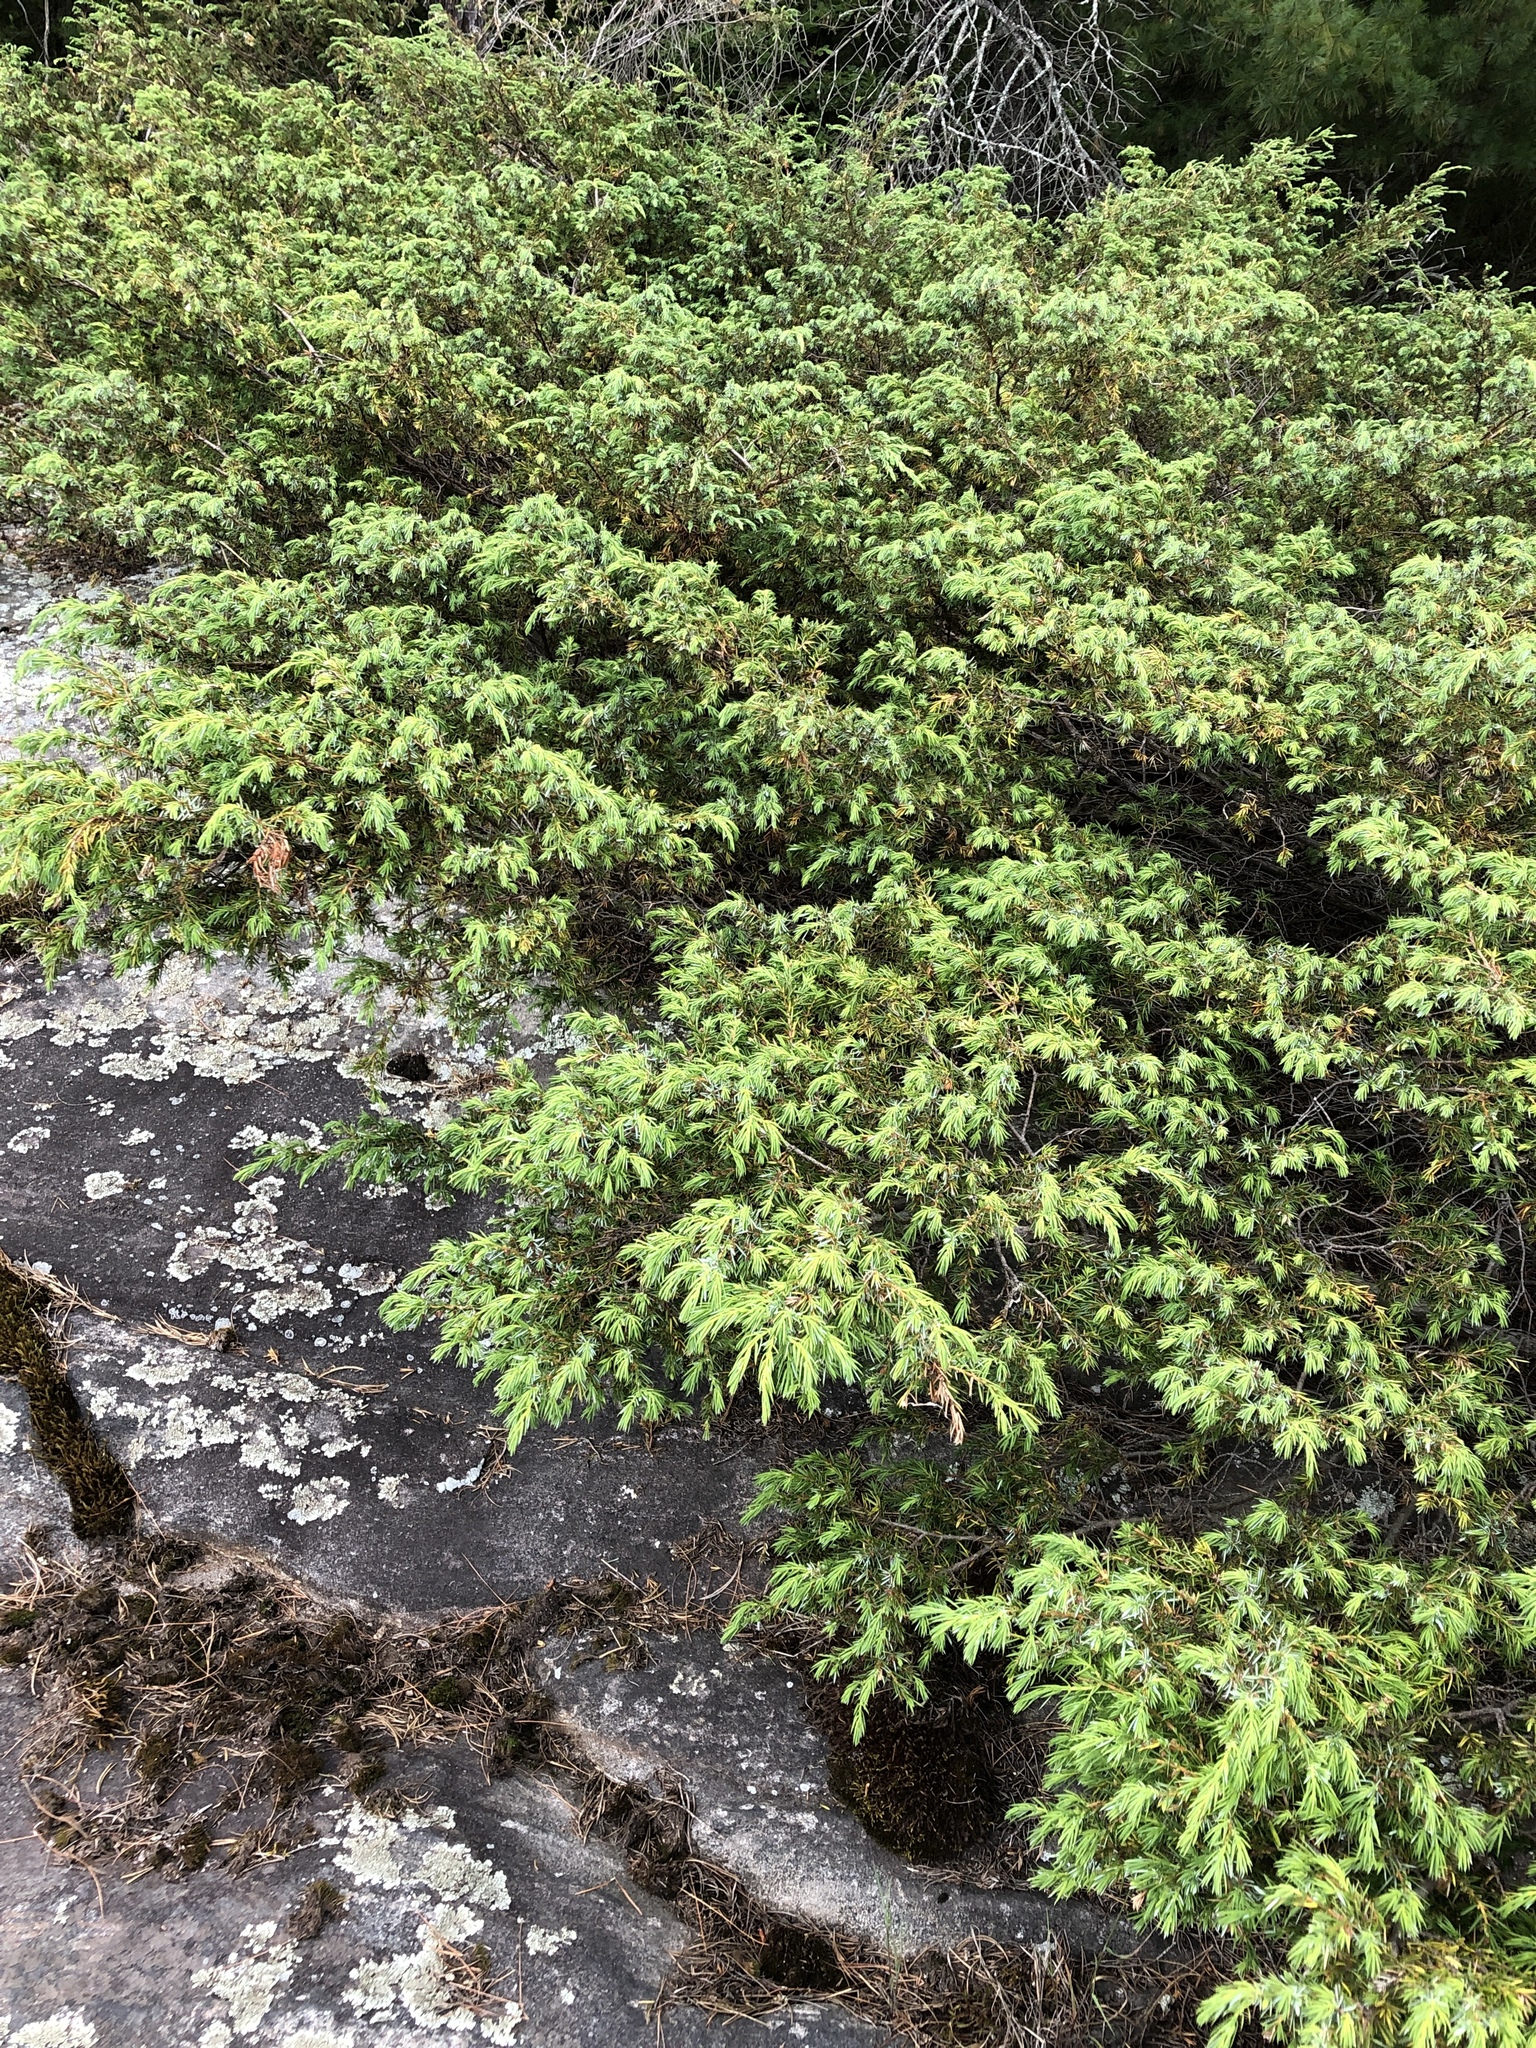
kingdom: Plantae
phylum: Tracheophyta
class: Pinopsida
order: Pinales
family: Cupressaceae
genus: Juniperus
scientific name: Juniperus communis
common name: Common juniper
